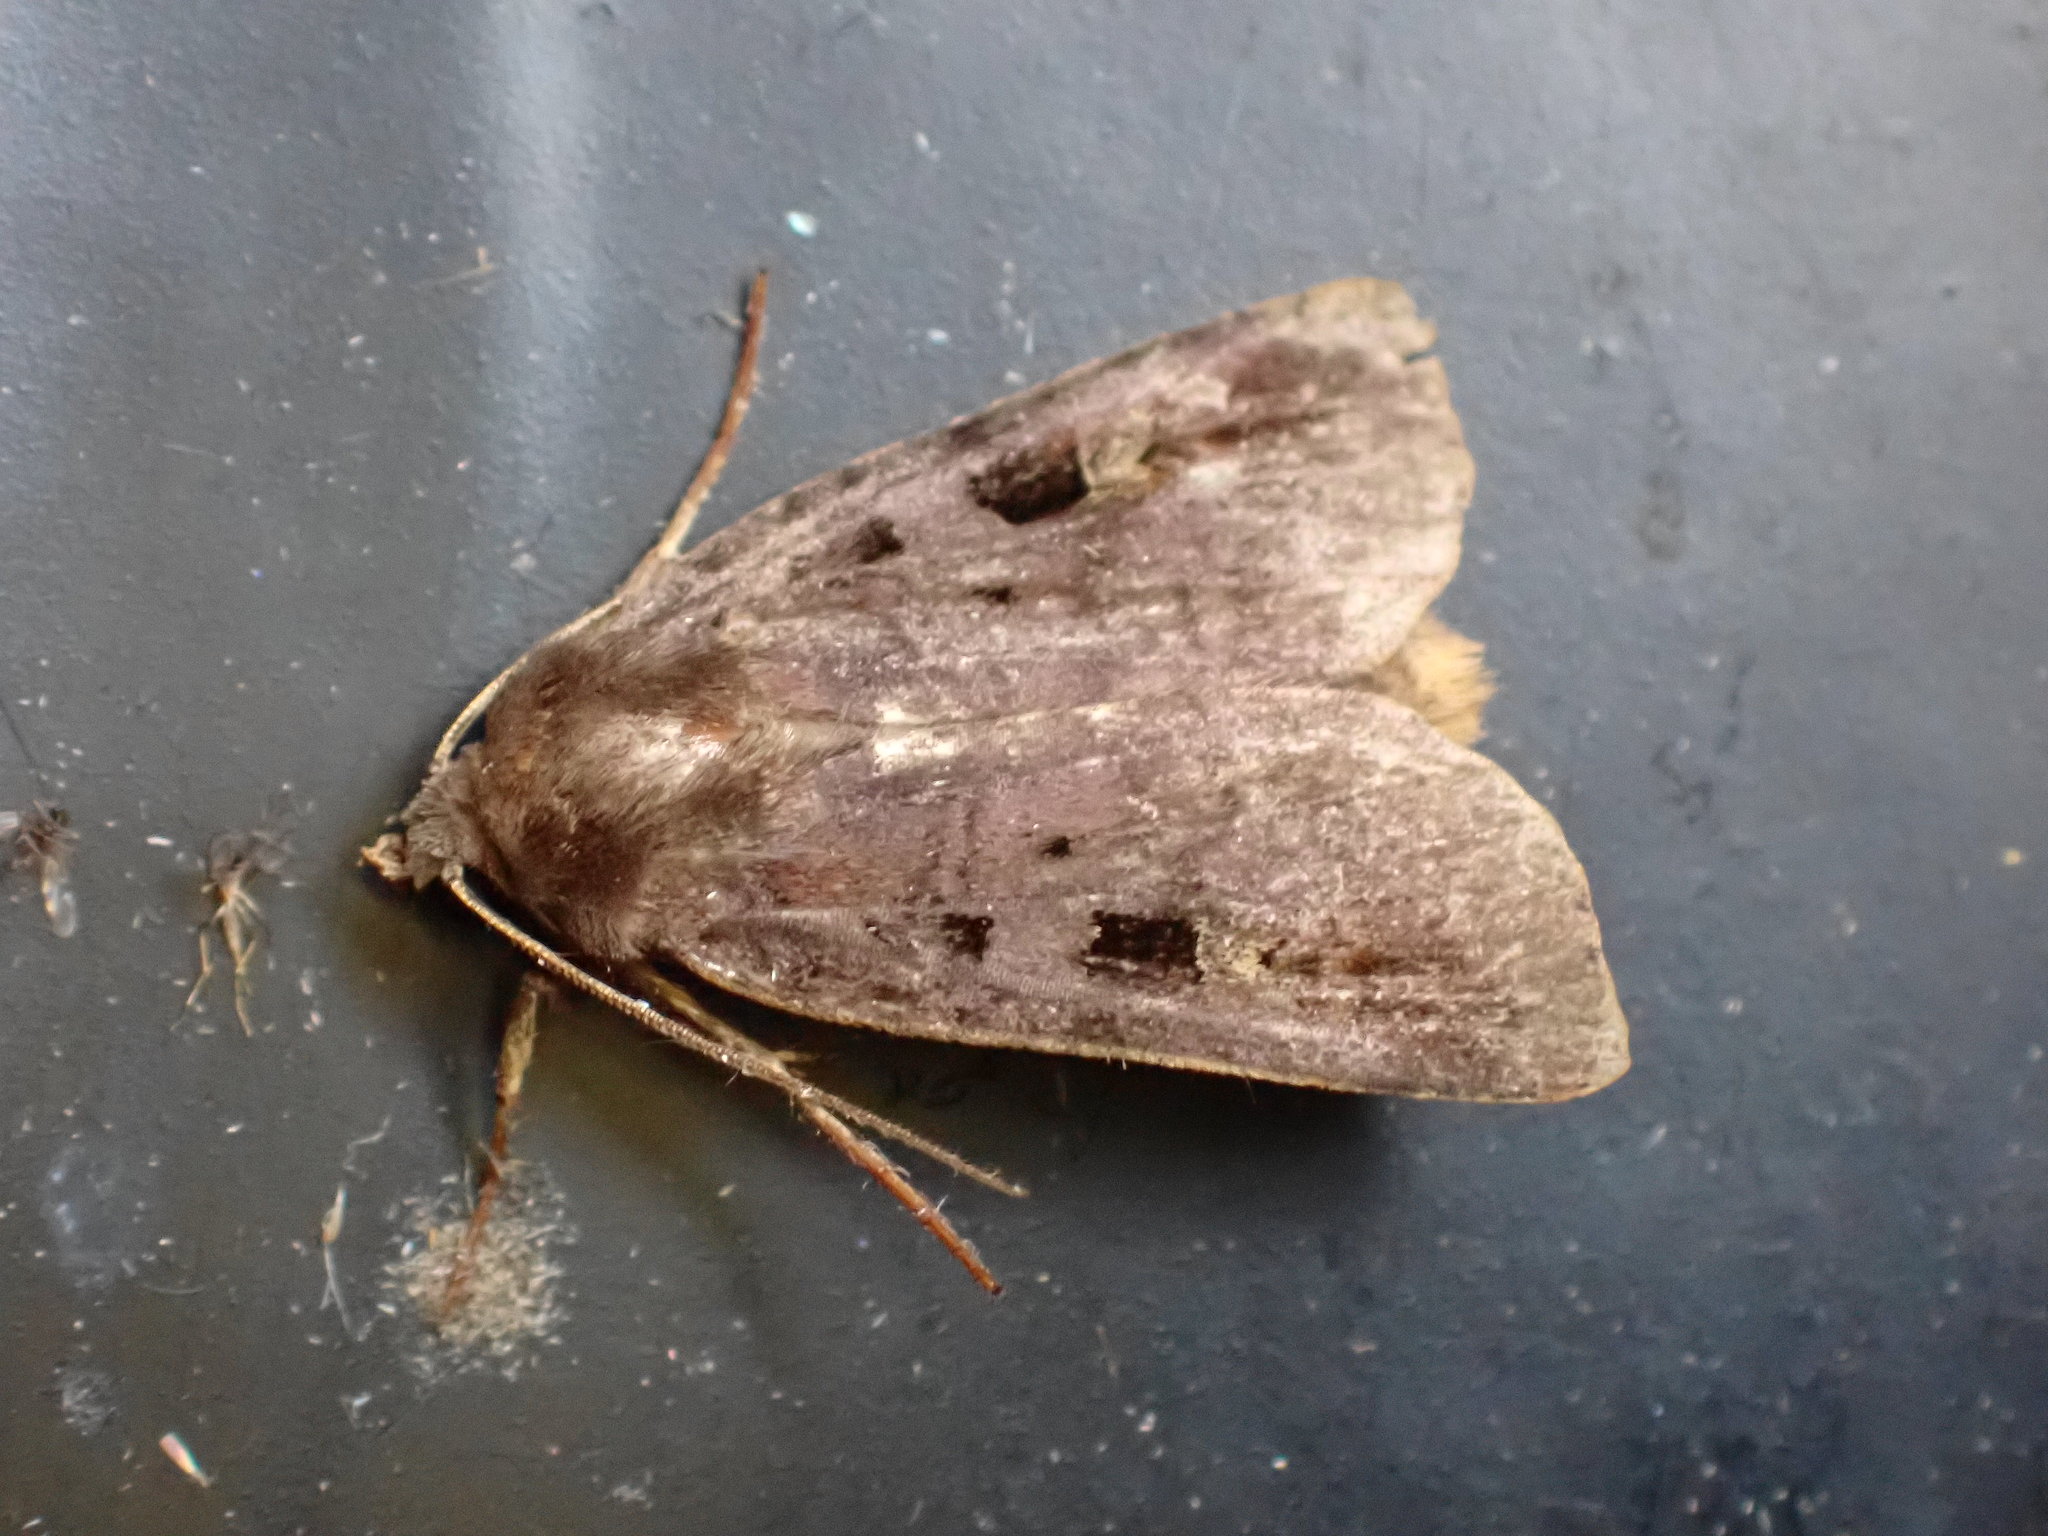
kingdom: Animalia
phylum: Arthropoda
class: Insecta
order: Lepidoptera
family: Noctuidae
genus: Diarsia
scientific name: Diarsia brunnea
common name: Purple clay
